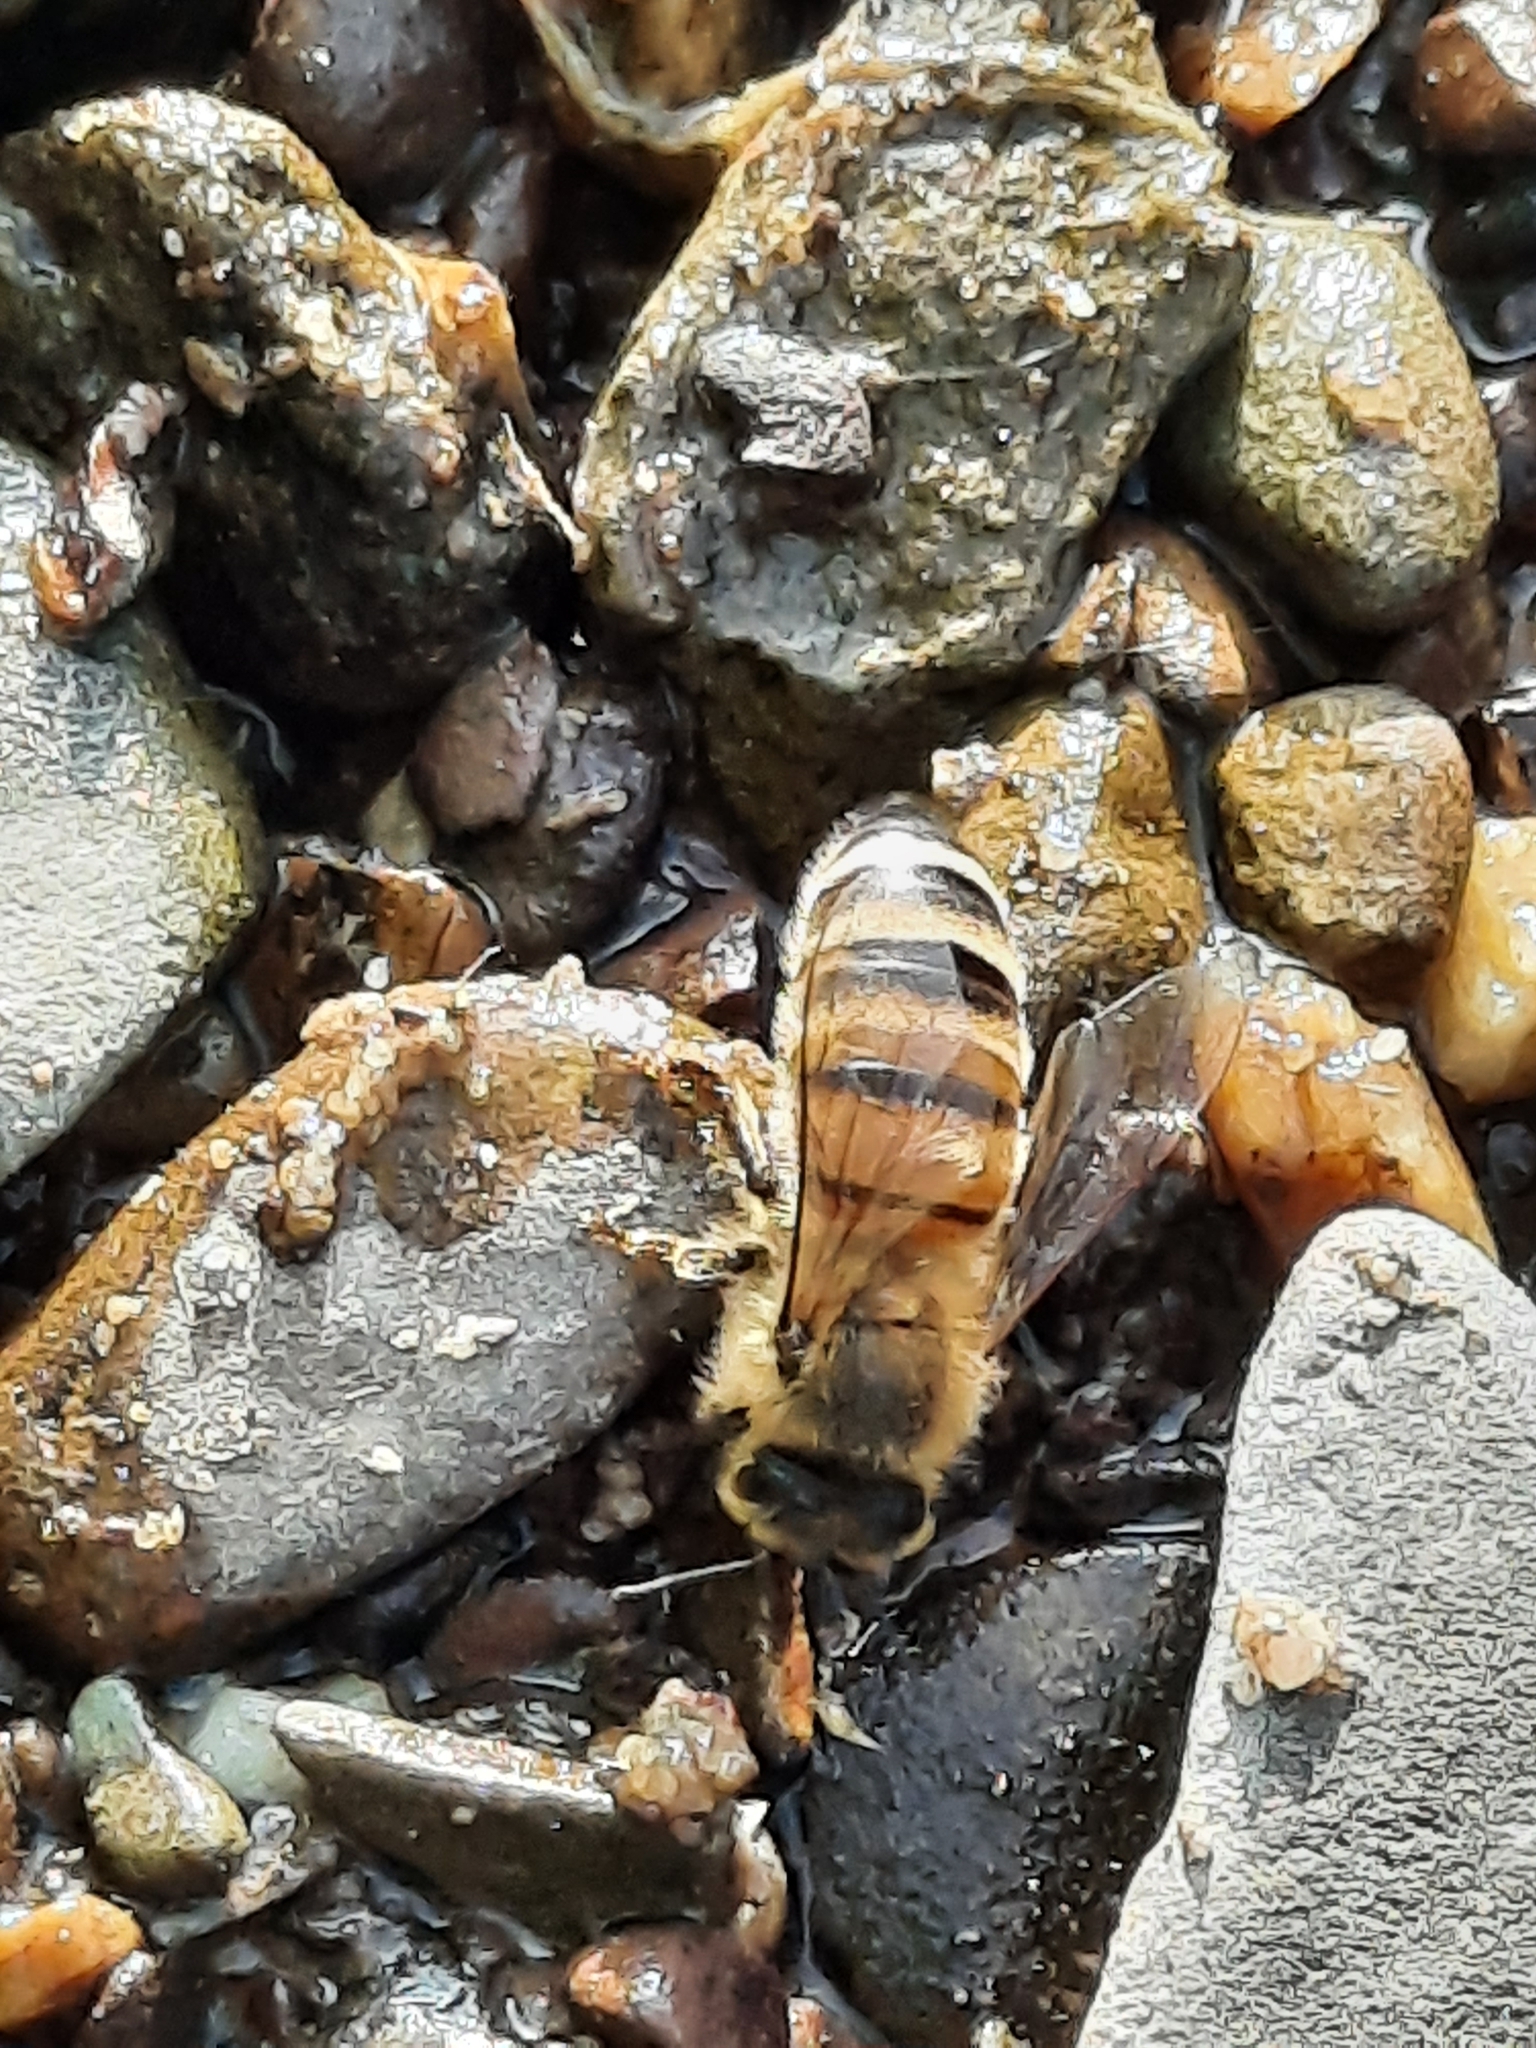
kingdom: Animalia
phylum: Arthropoda
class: Insecta
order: Hymenoptera
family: Apidae
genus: Apis
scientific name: Apis mellifera
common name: Honey bee
